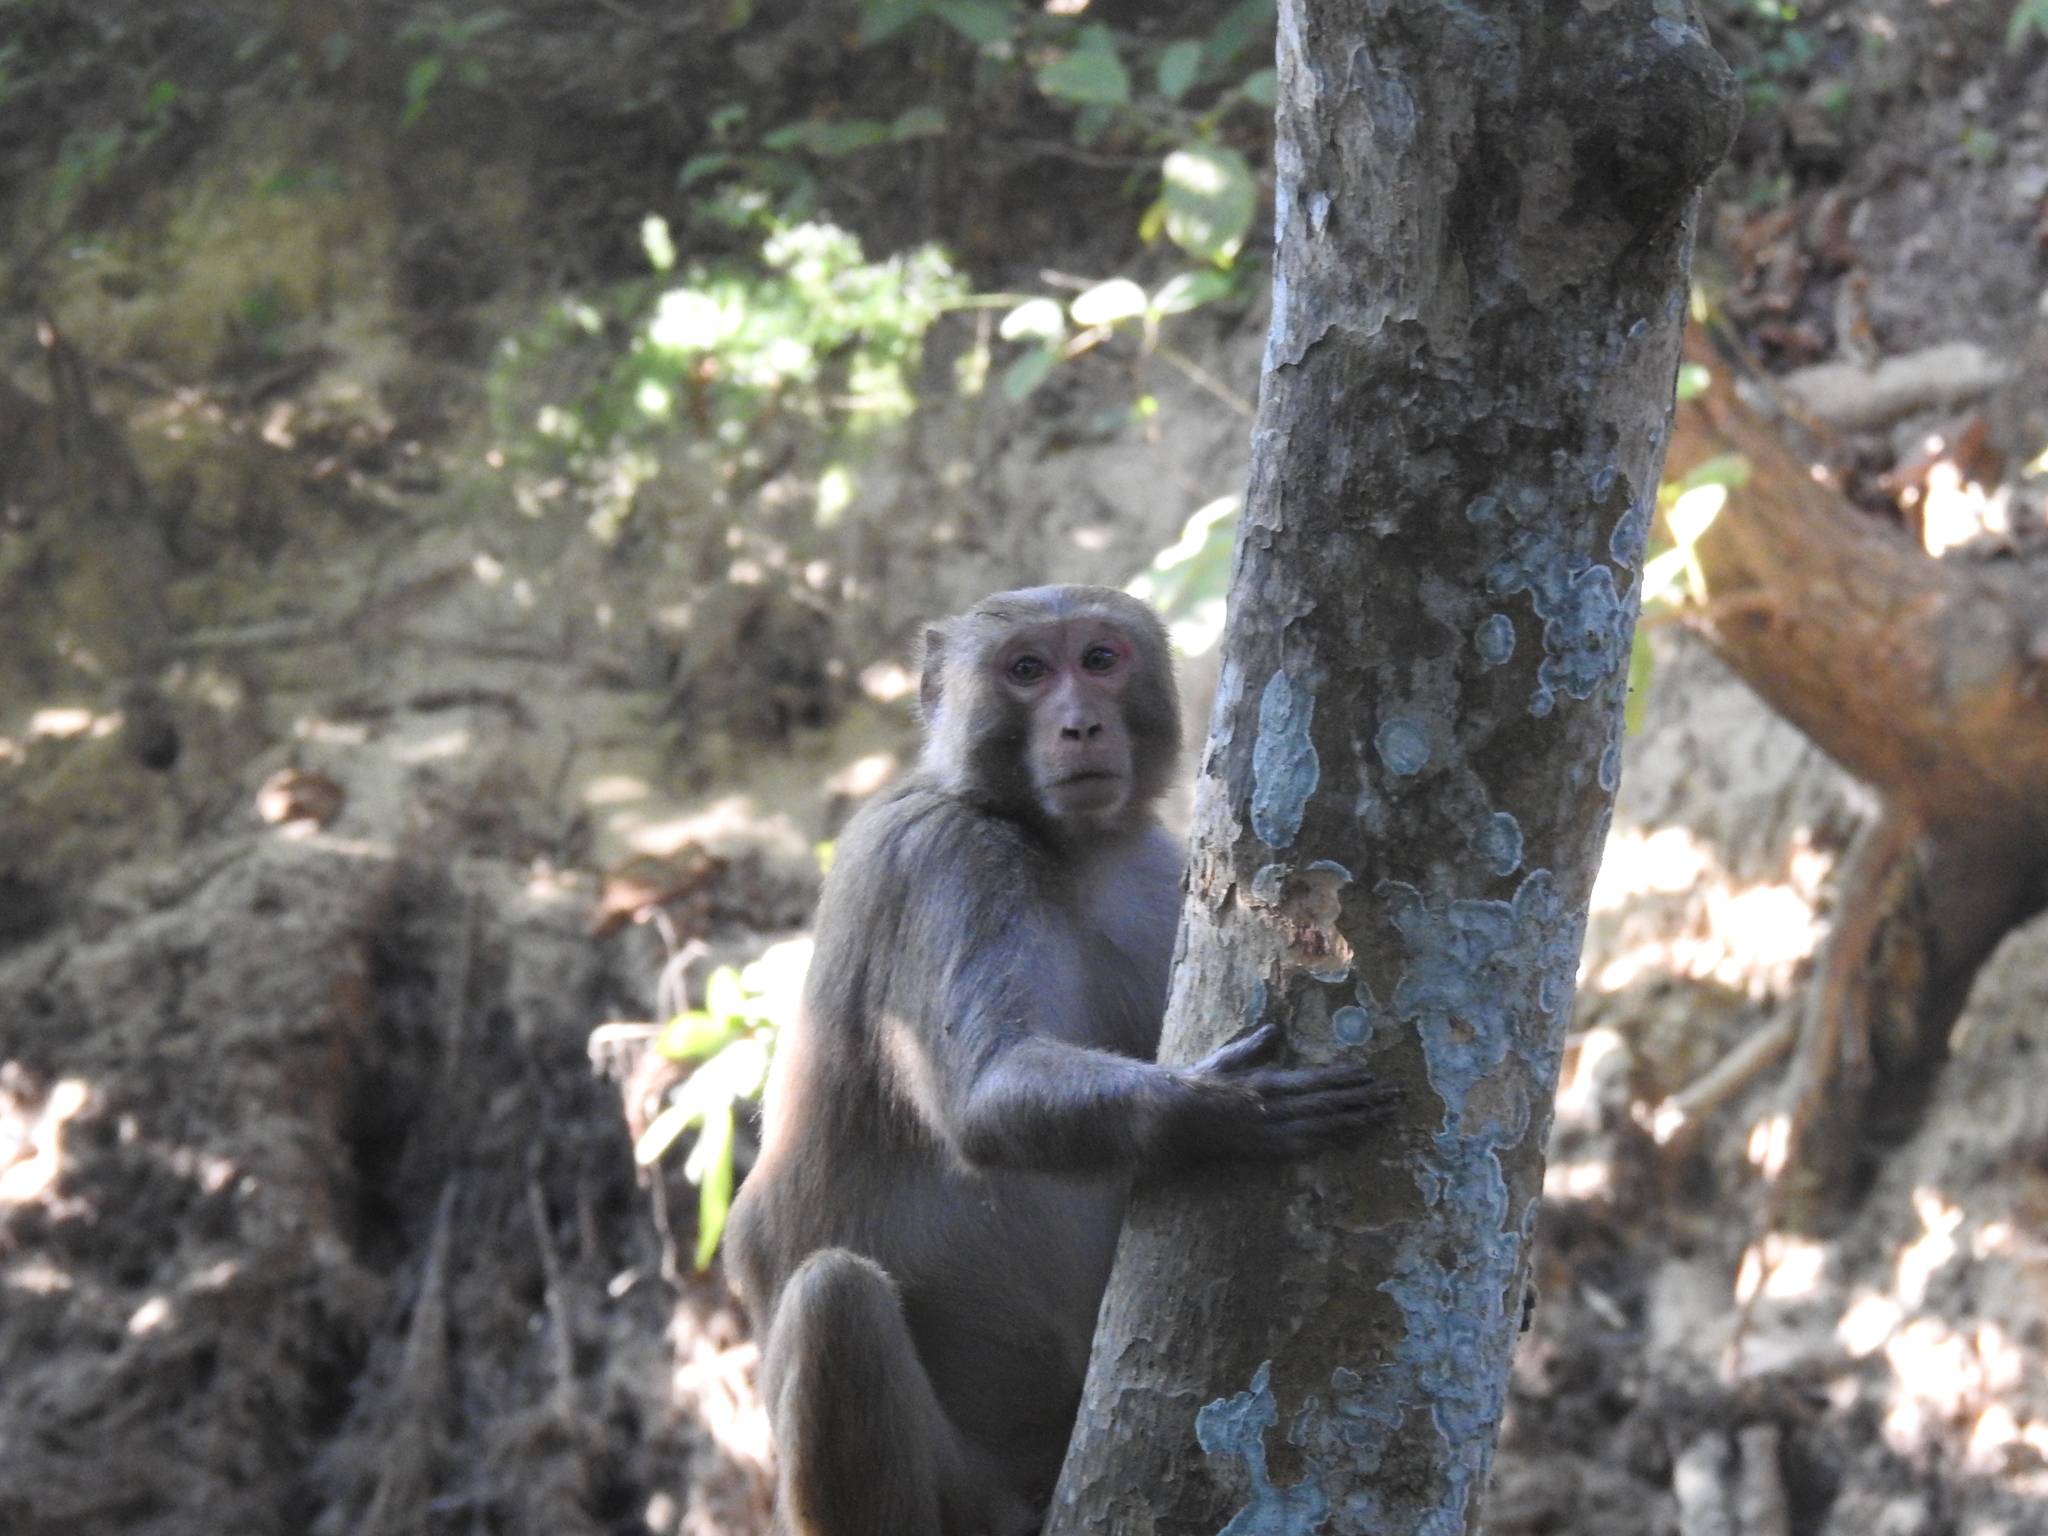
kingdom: Animalia
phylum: Chordata
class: Mammalia
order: Primates
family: Cercopithecidae
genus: Macaca
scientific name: Macaca mulatta
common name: Rhesus monkey
